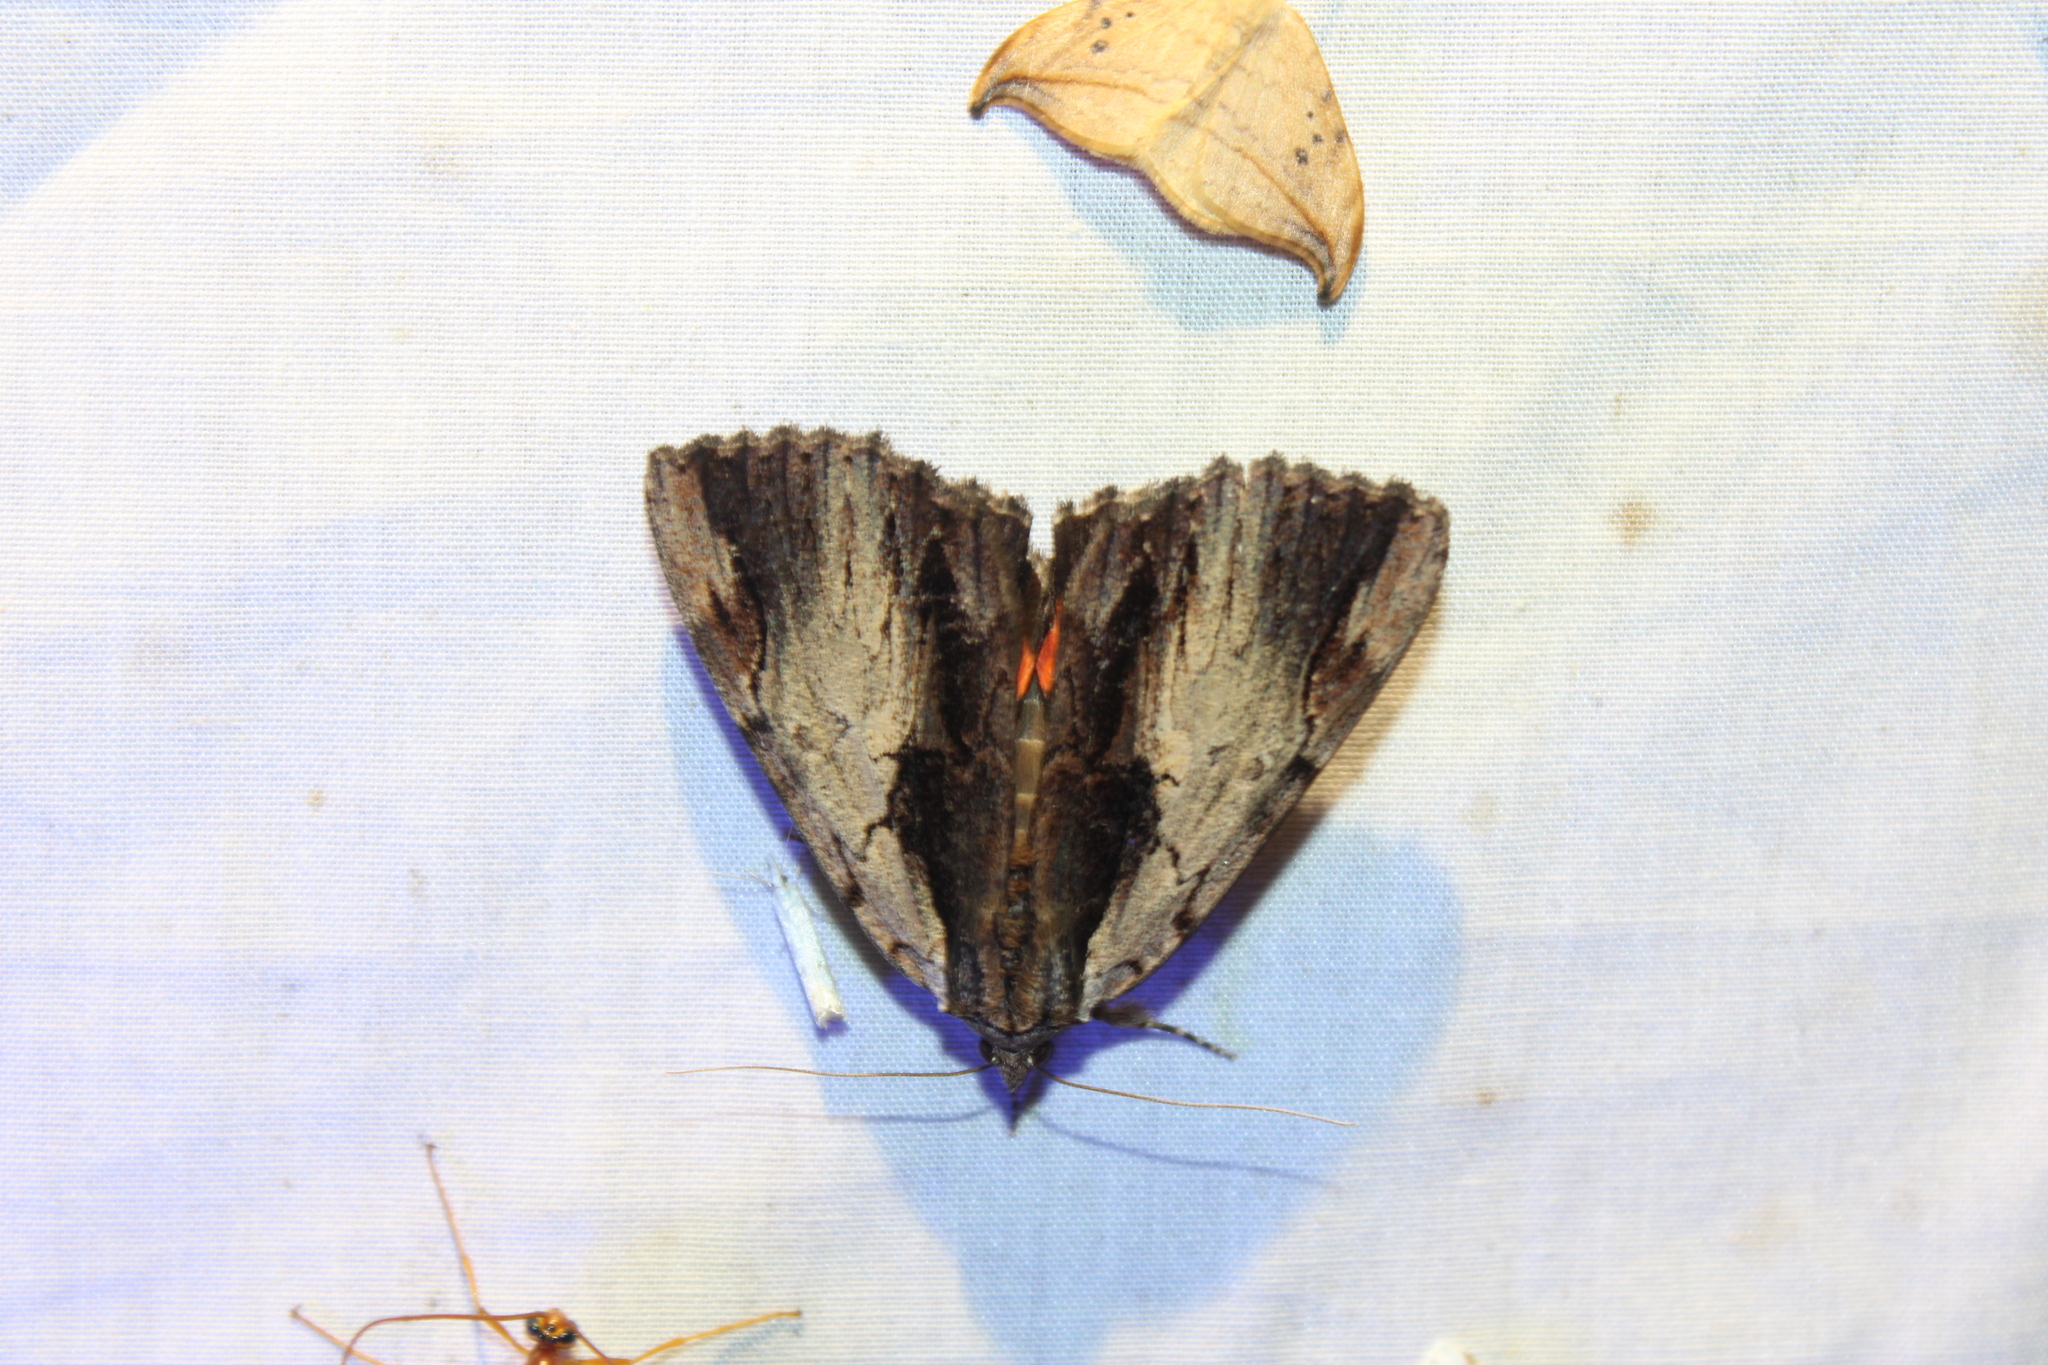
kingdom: Animalia
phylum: Arthropoda
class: Insecta
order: Lepidoptera
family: Erebidae
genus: Catocala
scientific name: Catocala ultronia
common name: Ultronia underwing
